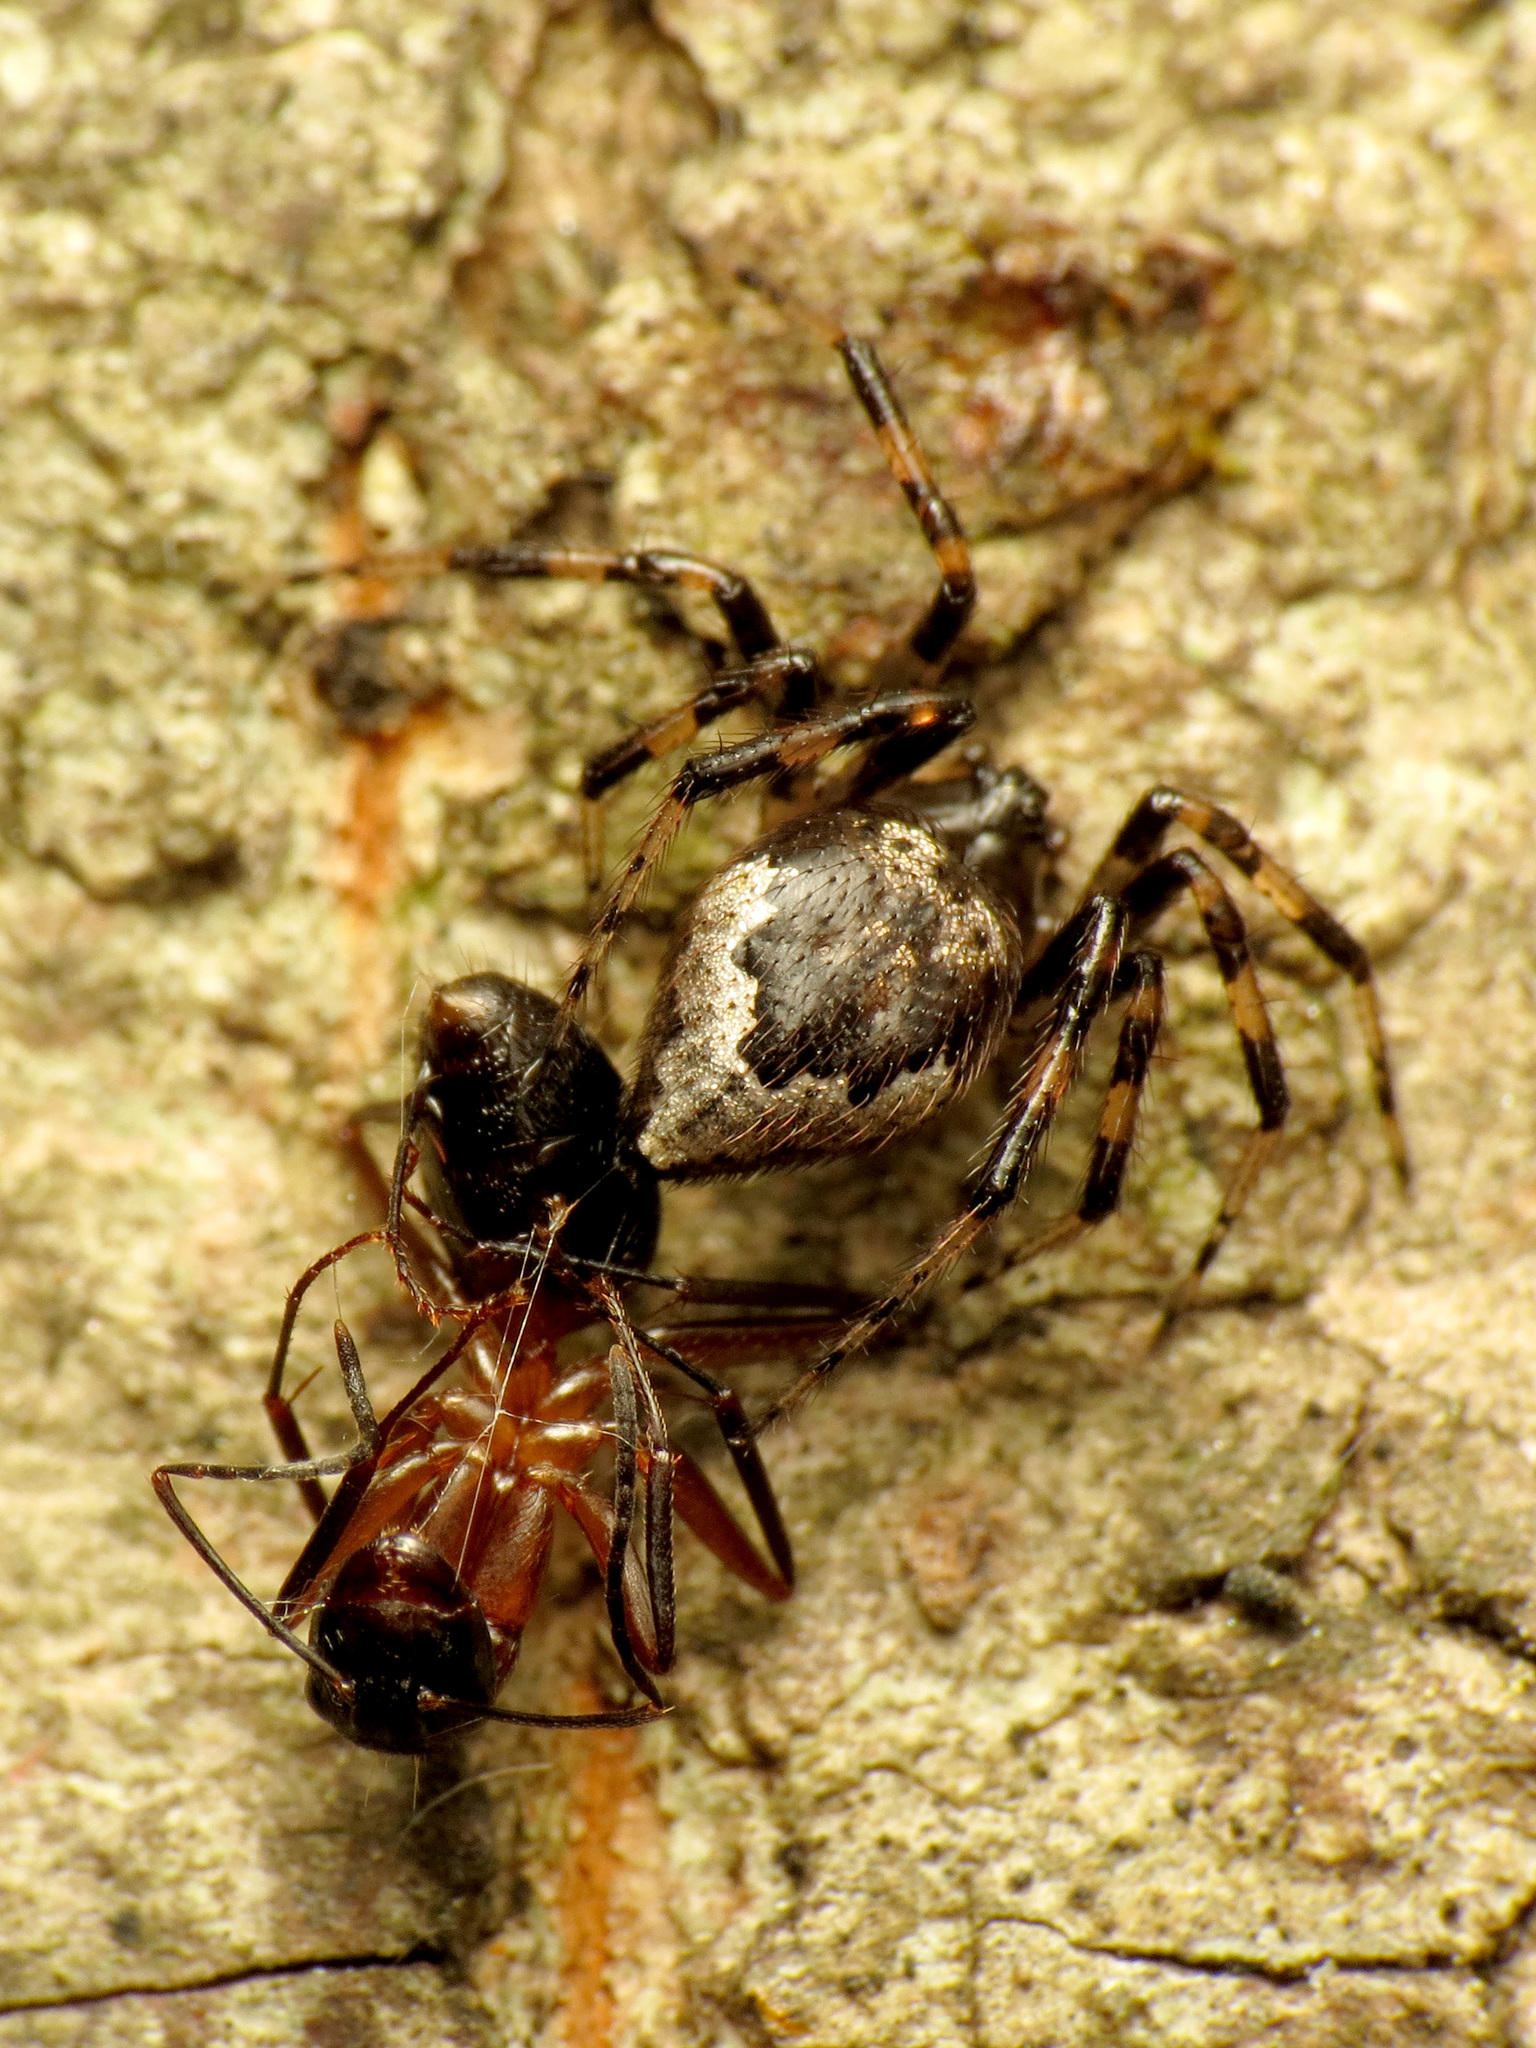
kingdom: Animalia
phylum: Arthropoda
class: Insecta
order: Hymenoptera
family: Formicidae
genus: Camponotus
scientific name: Camponotus chromaiodes
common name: Red carpenter ant
